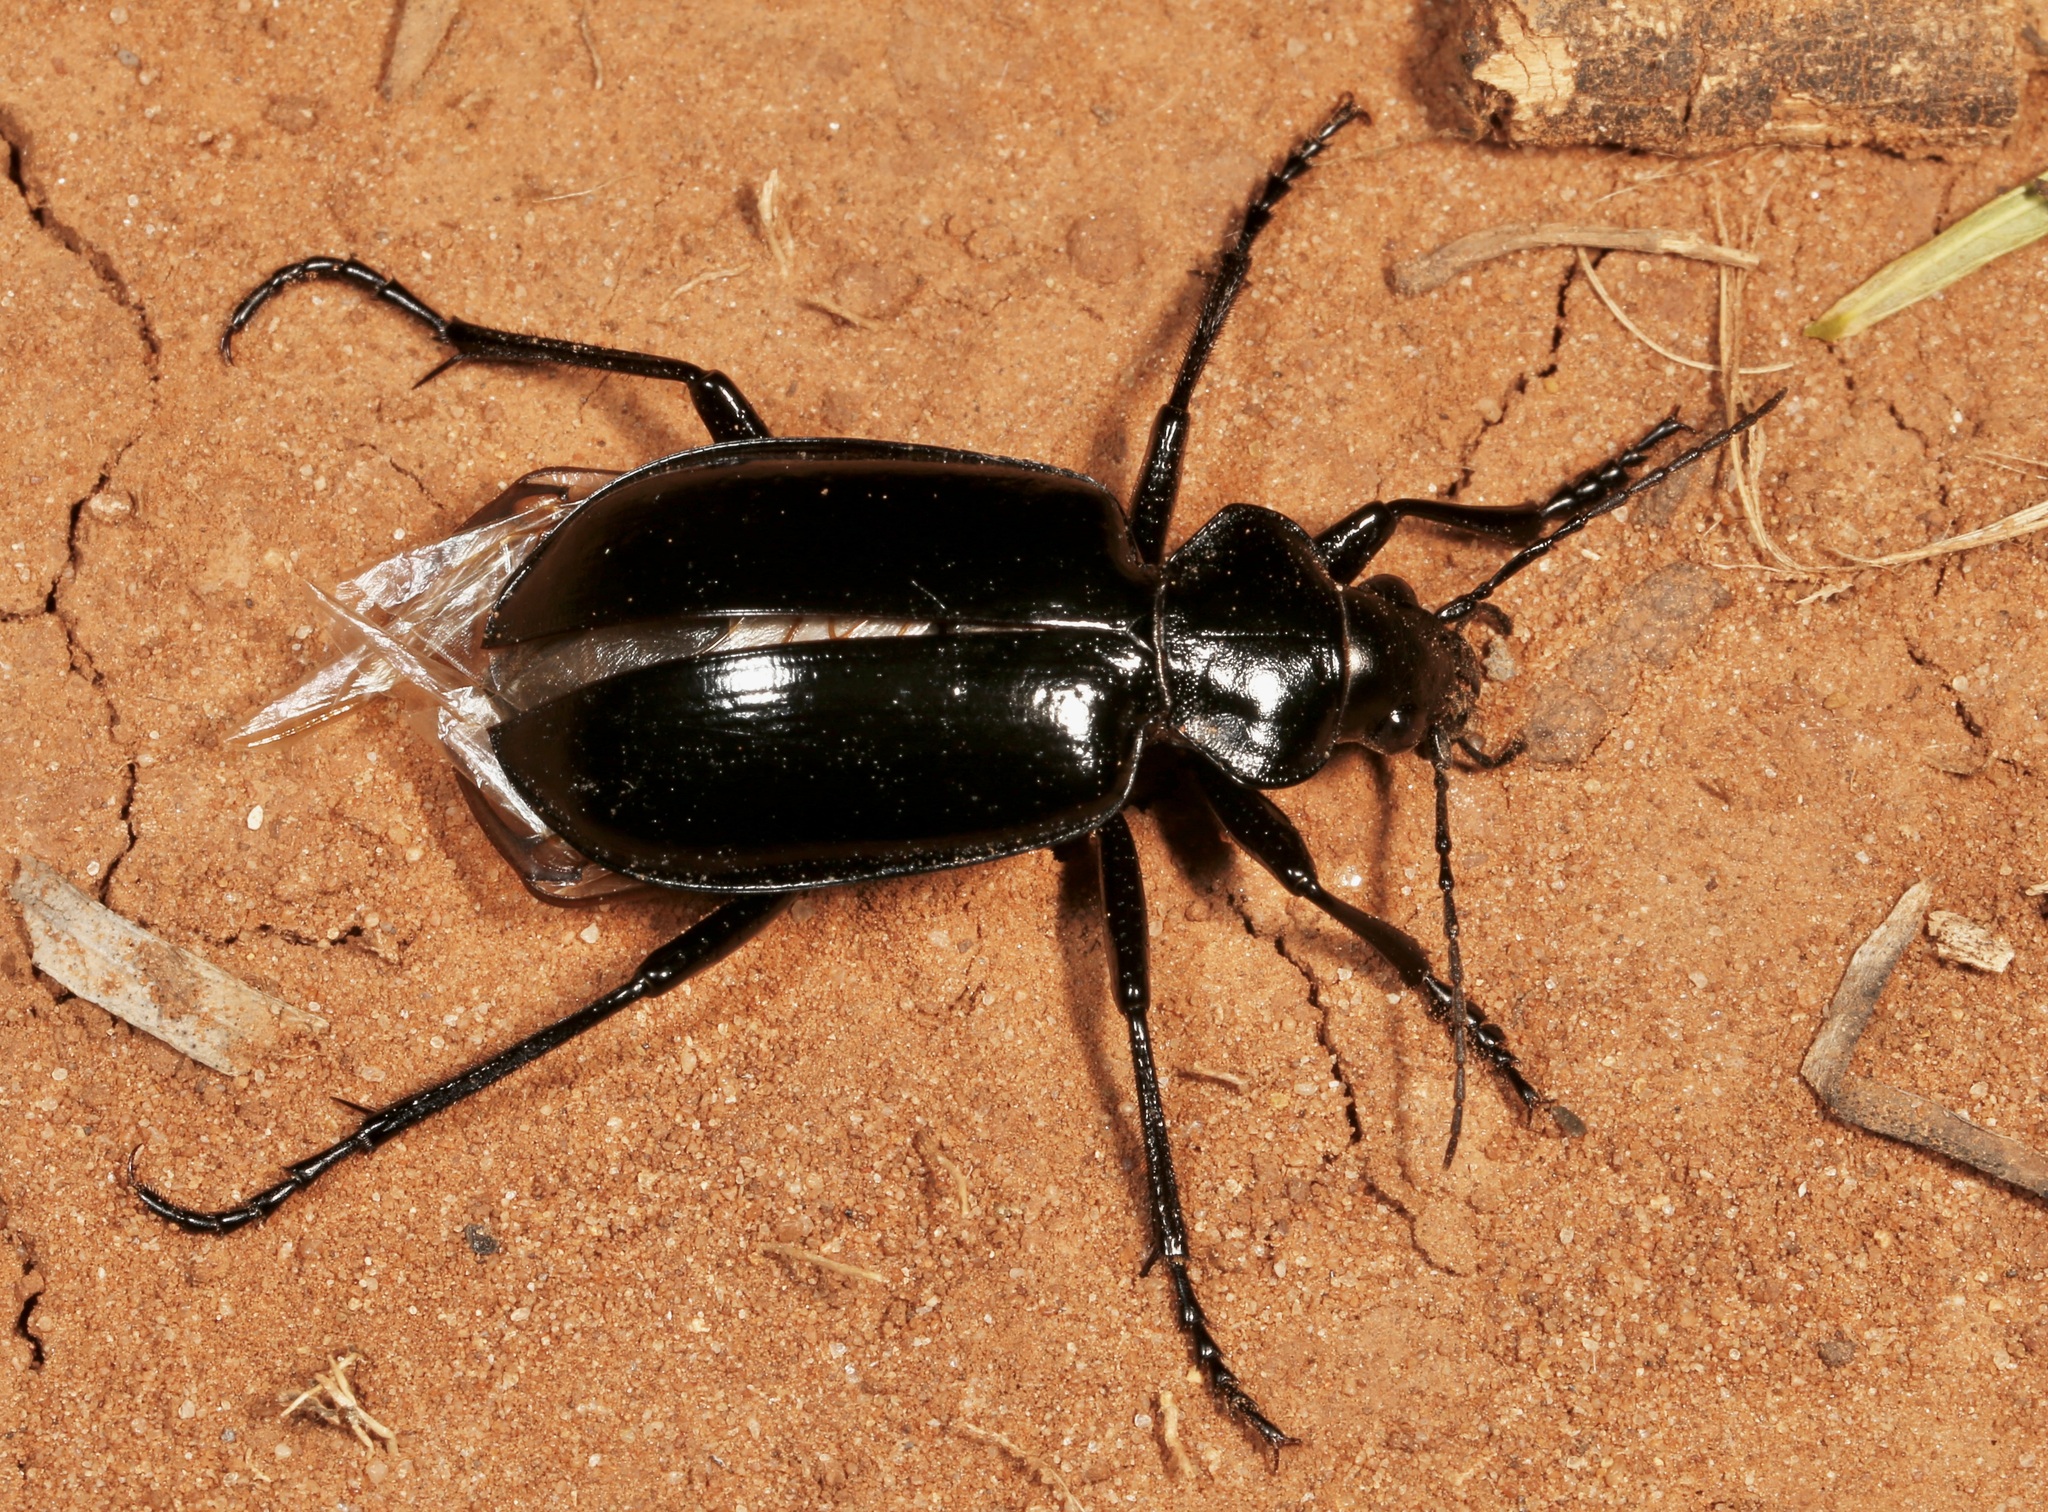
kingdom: Animalia
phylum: Arthropoda
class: Insecta
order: Coleoptera
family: Carabidae
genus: Calosoma
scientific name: Calosoma marginale
